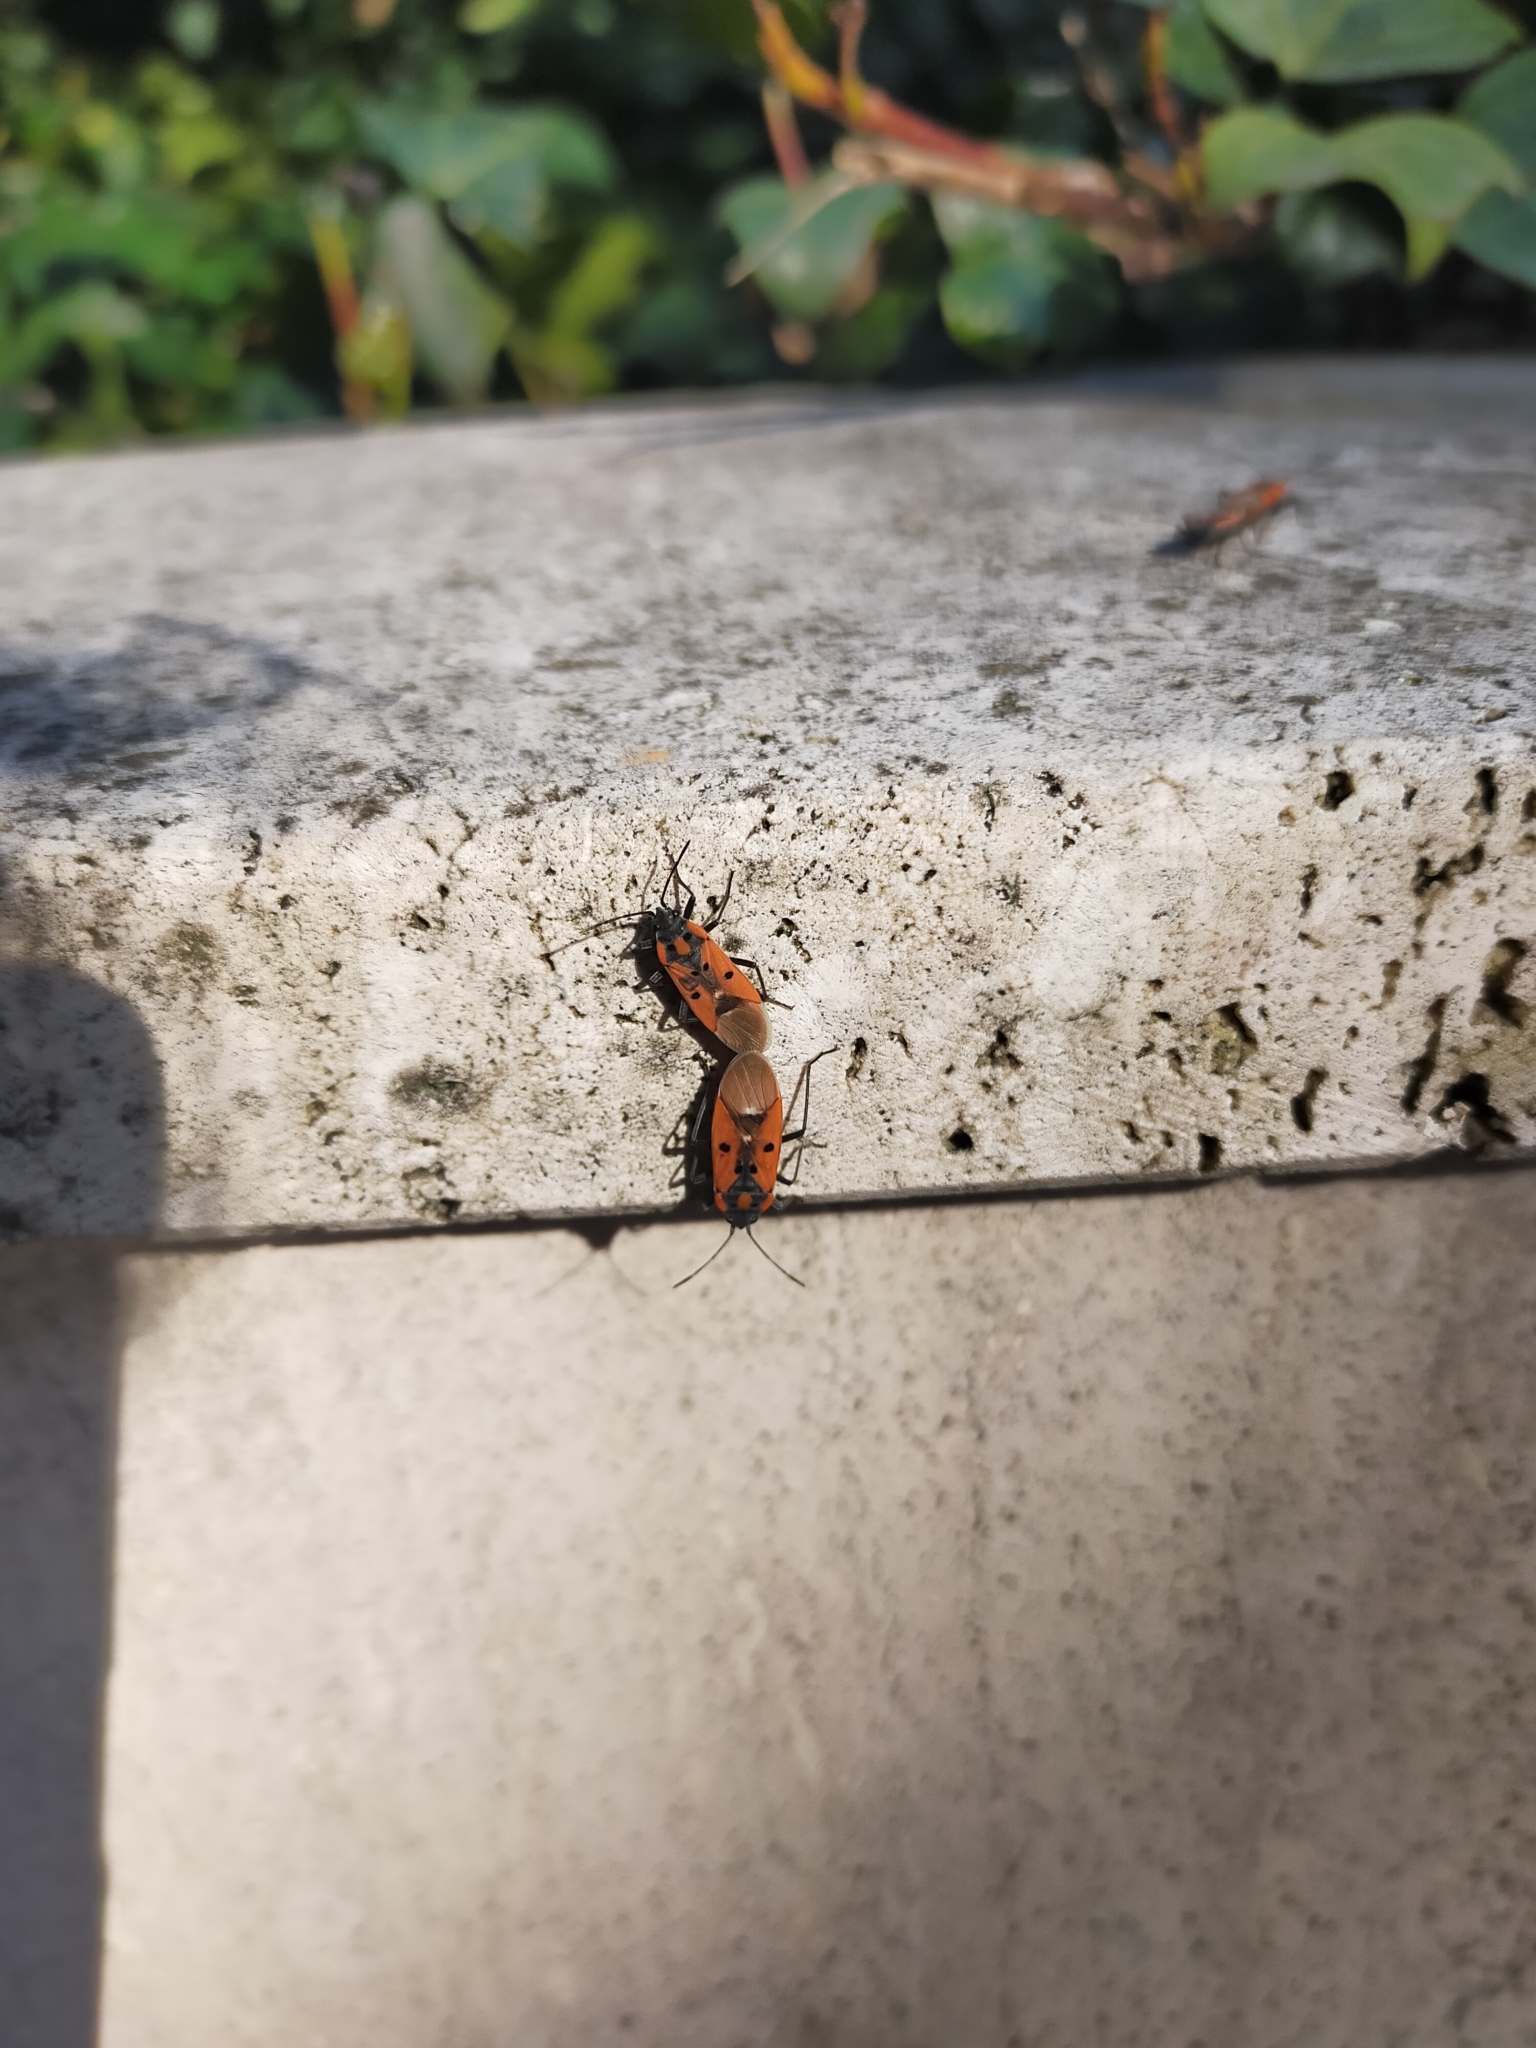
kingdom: Animalia
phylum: Arthropoda
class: Insecta
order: Hemiptera
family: Lygaeidae
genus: Lygaeus
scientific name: Lygaeus creticus
